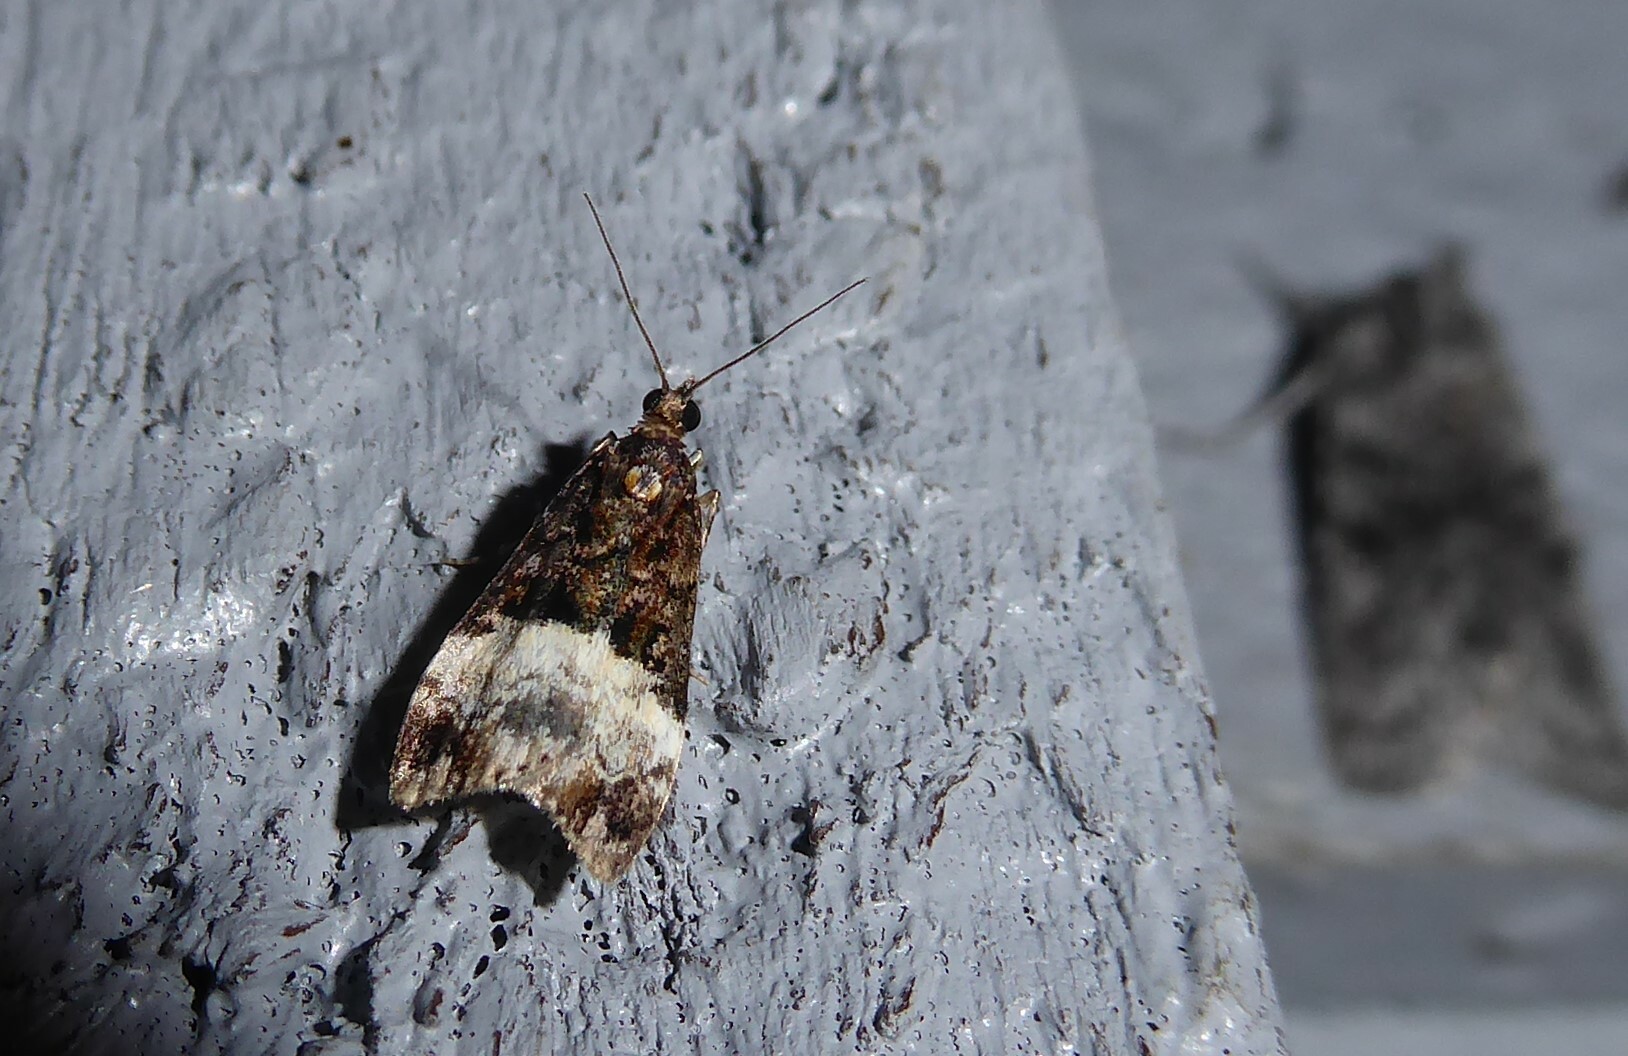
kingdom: Animalia
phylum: Arthropoda
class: Insecta
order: Lepidoptera
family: Crambidae
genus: Scoparia
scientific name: Scoparia minusculalis
